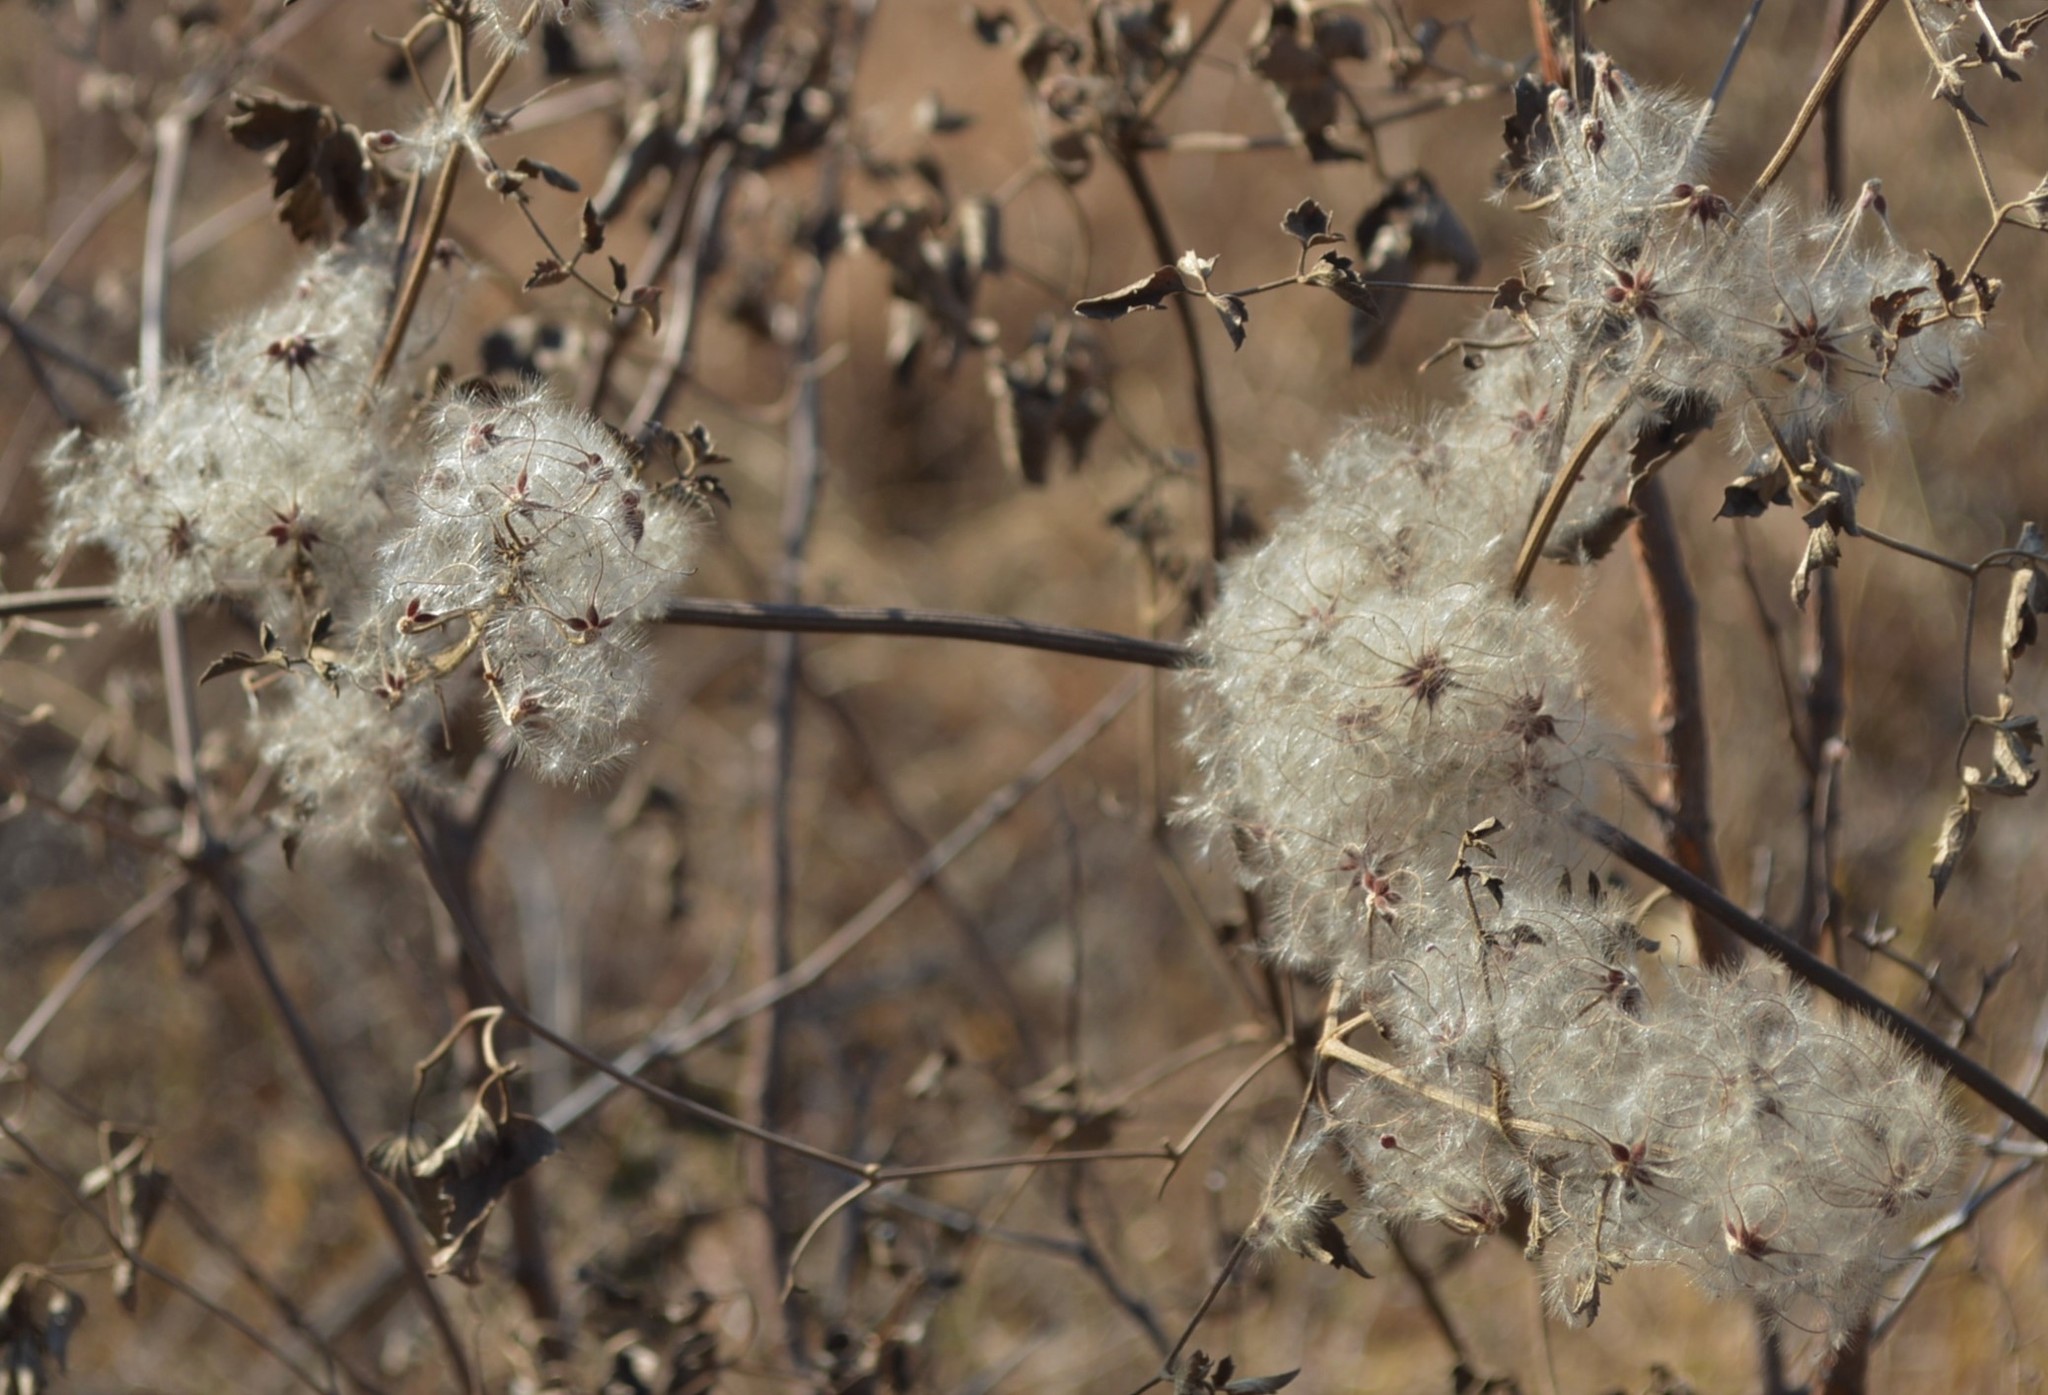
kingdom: Plantae
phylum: Tracheophyta
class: Magnoliopsida
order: Ranunculales
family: Ranunculaceae
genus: Clematis
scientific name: Clematis brachiata
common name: Traveler's-joy
